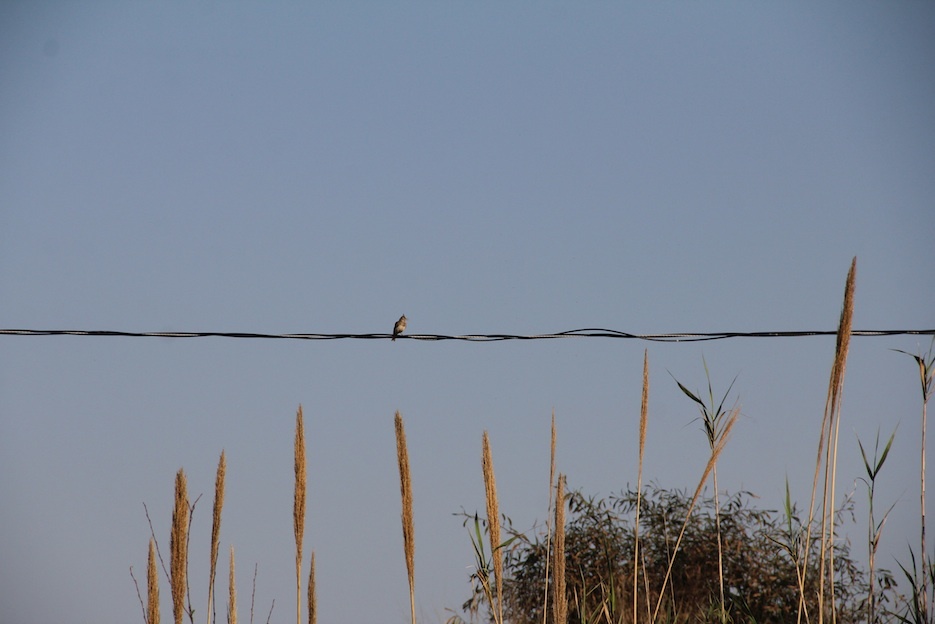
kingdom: Animalia
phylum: Chordata
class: Aves
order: Passeriformes
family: Alaudidae
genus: Galerida
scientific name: Galerida cristata
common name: Crested lark
